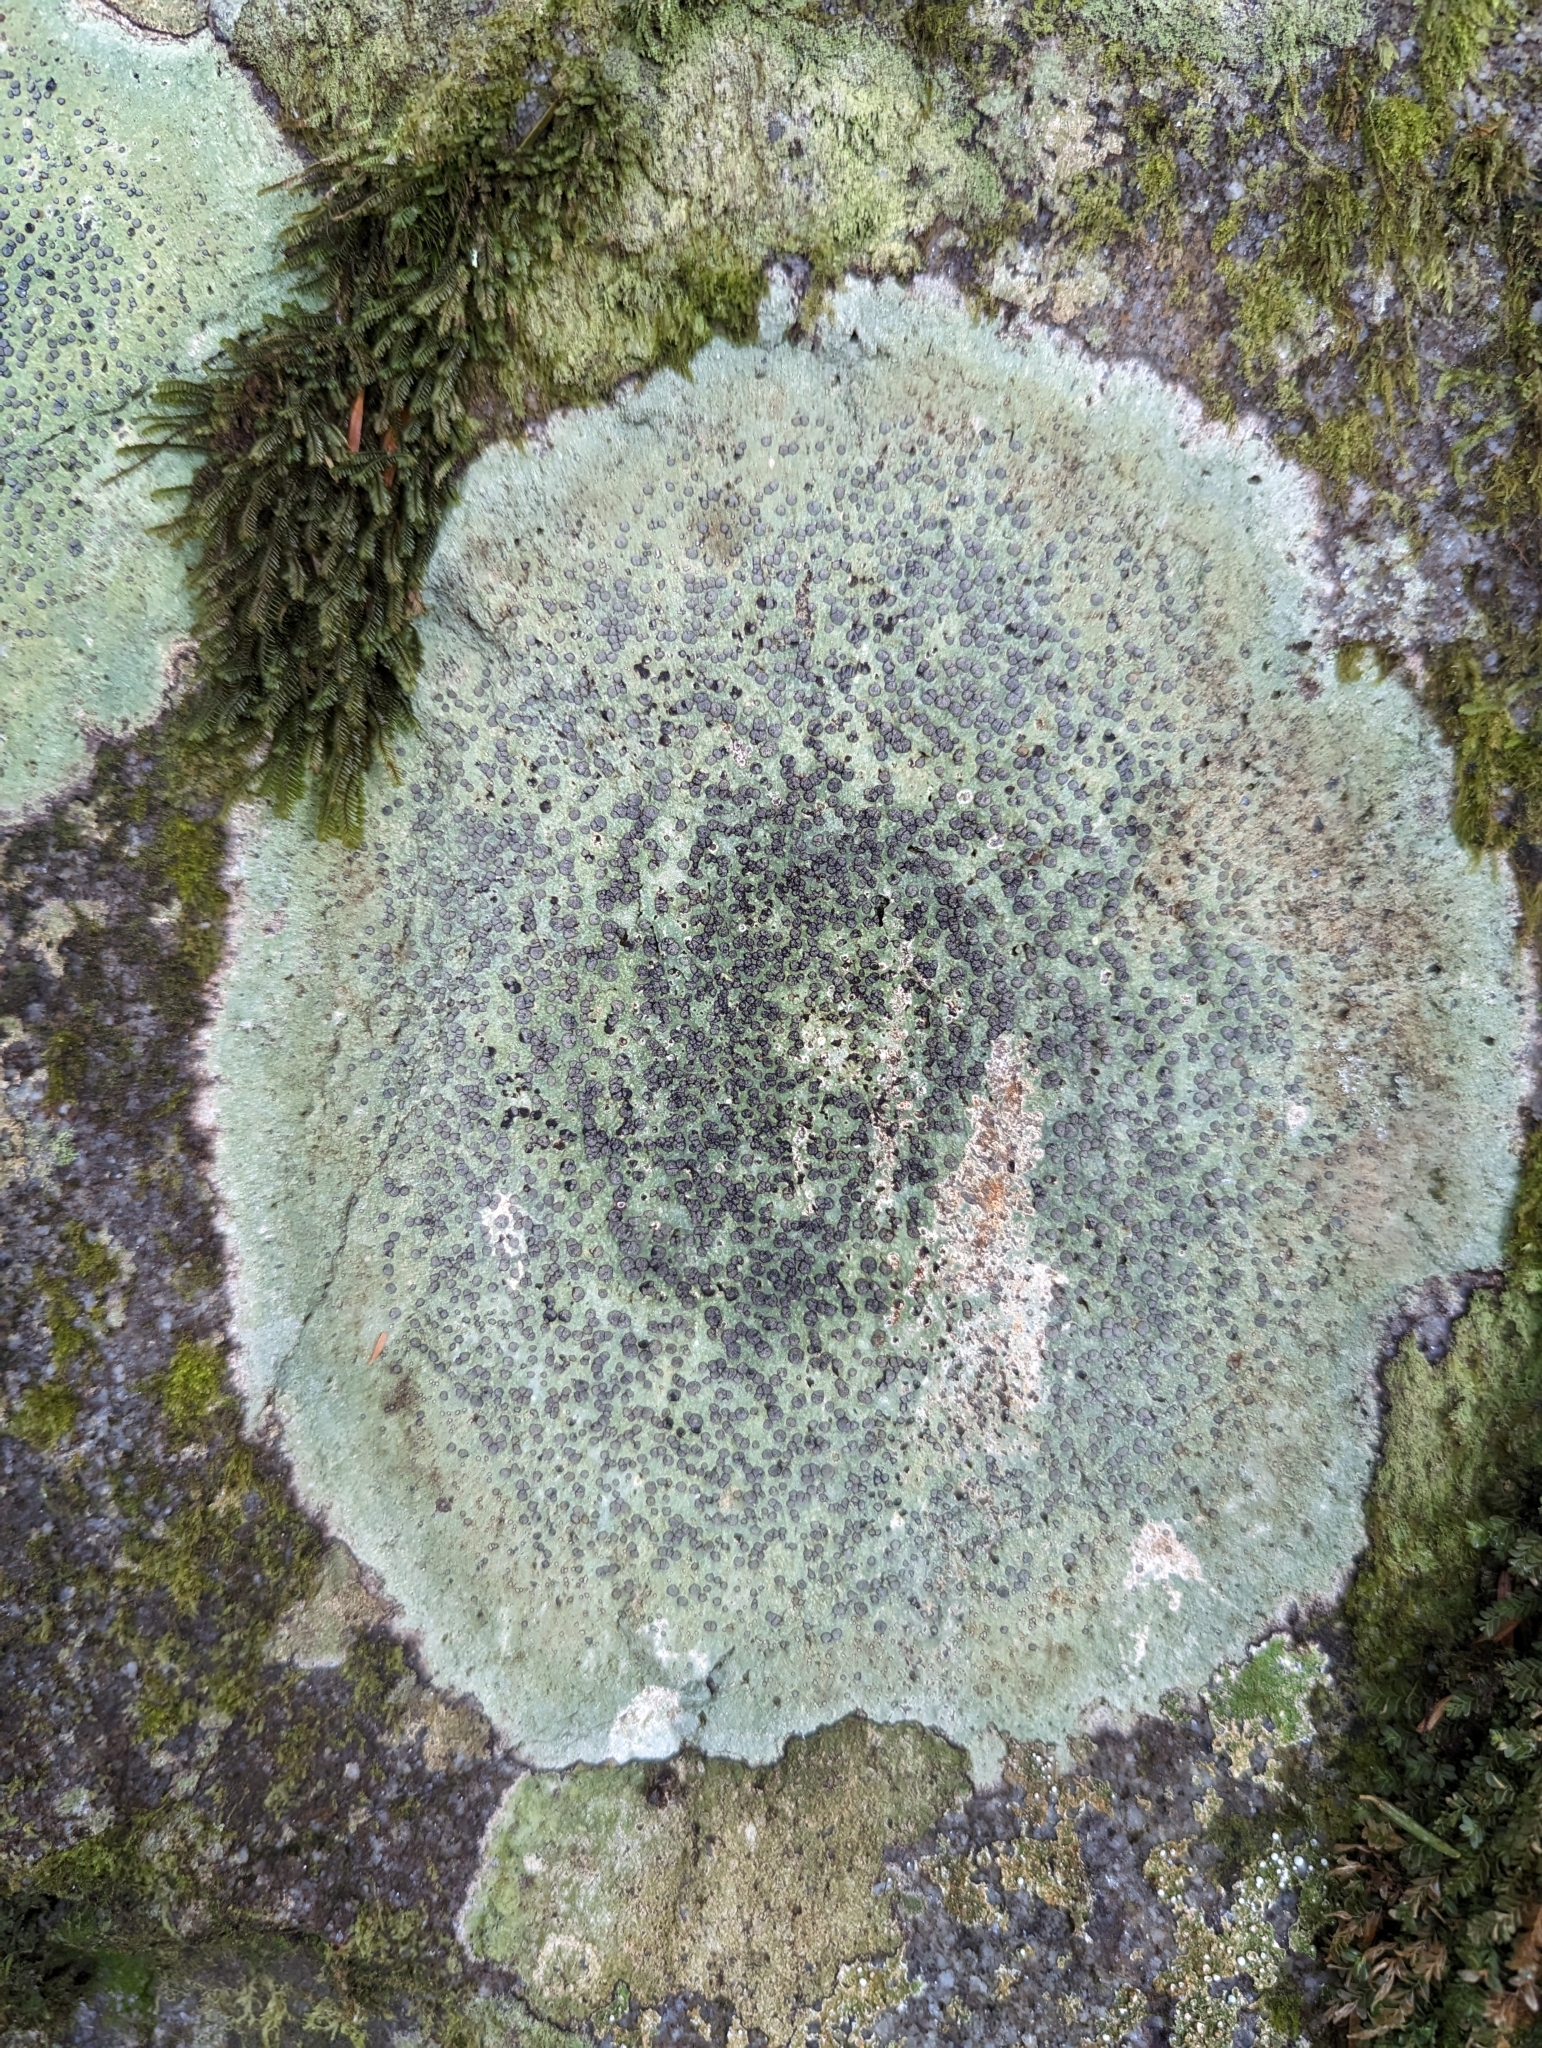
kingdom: Fungi
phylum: Ascomycota
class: Lecanoromycetes
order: Lecideales
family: Lecideaceae
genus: Porpidia
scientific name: Porpidia albocaerulescens
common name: Smokey-eyed boulder lichen
